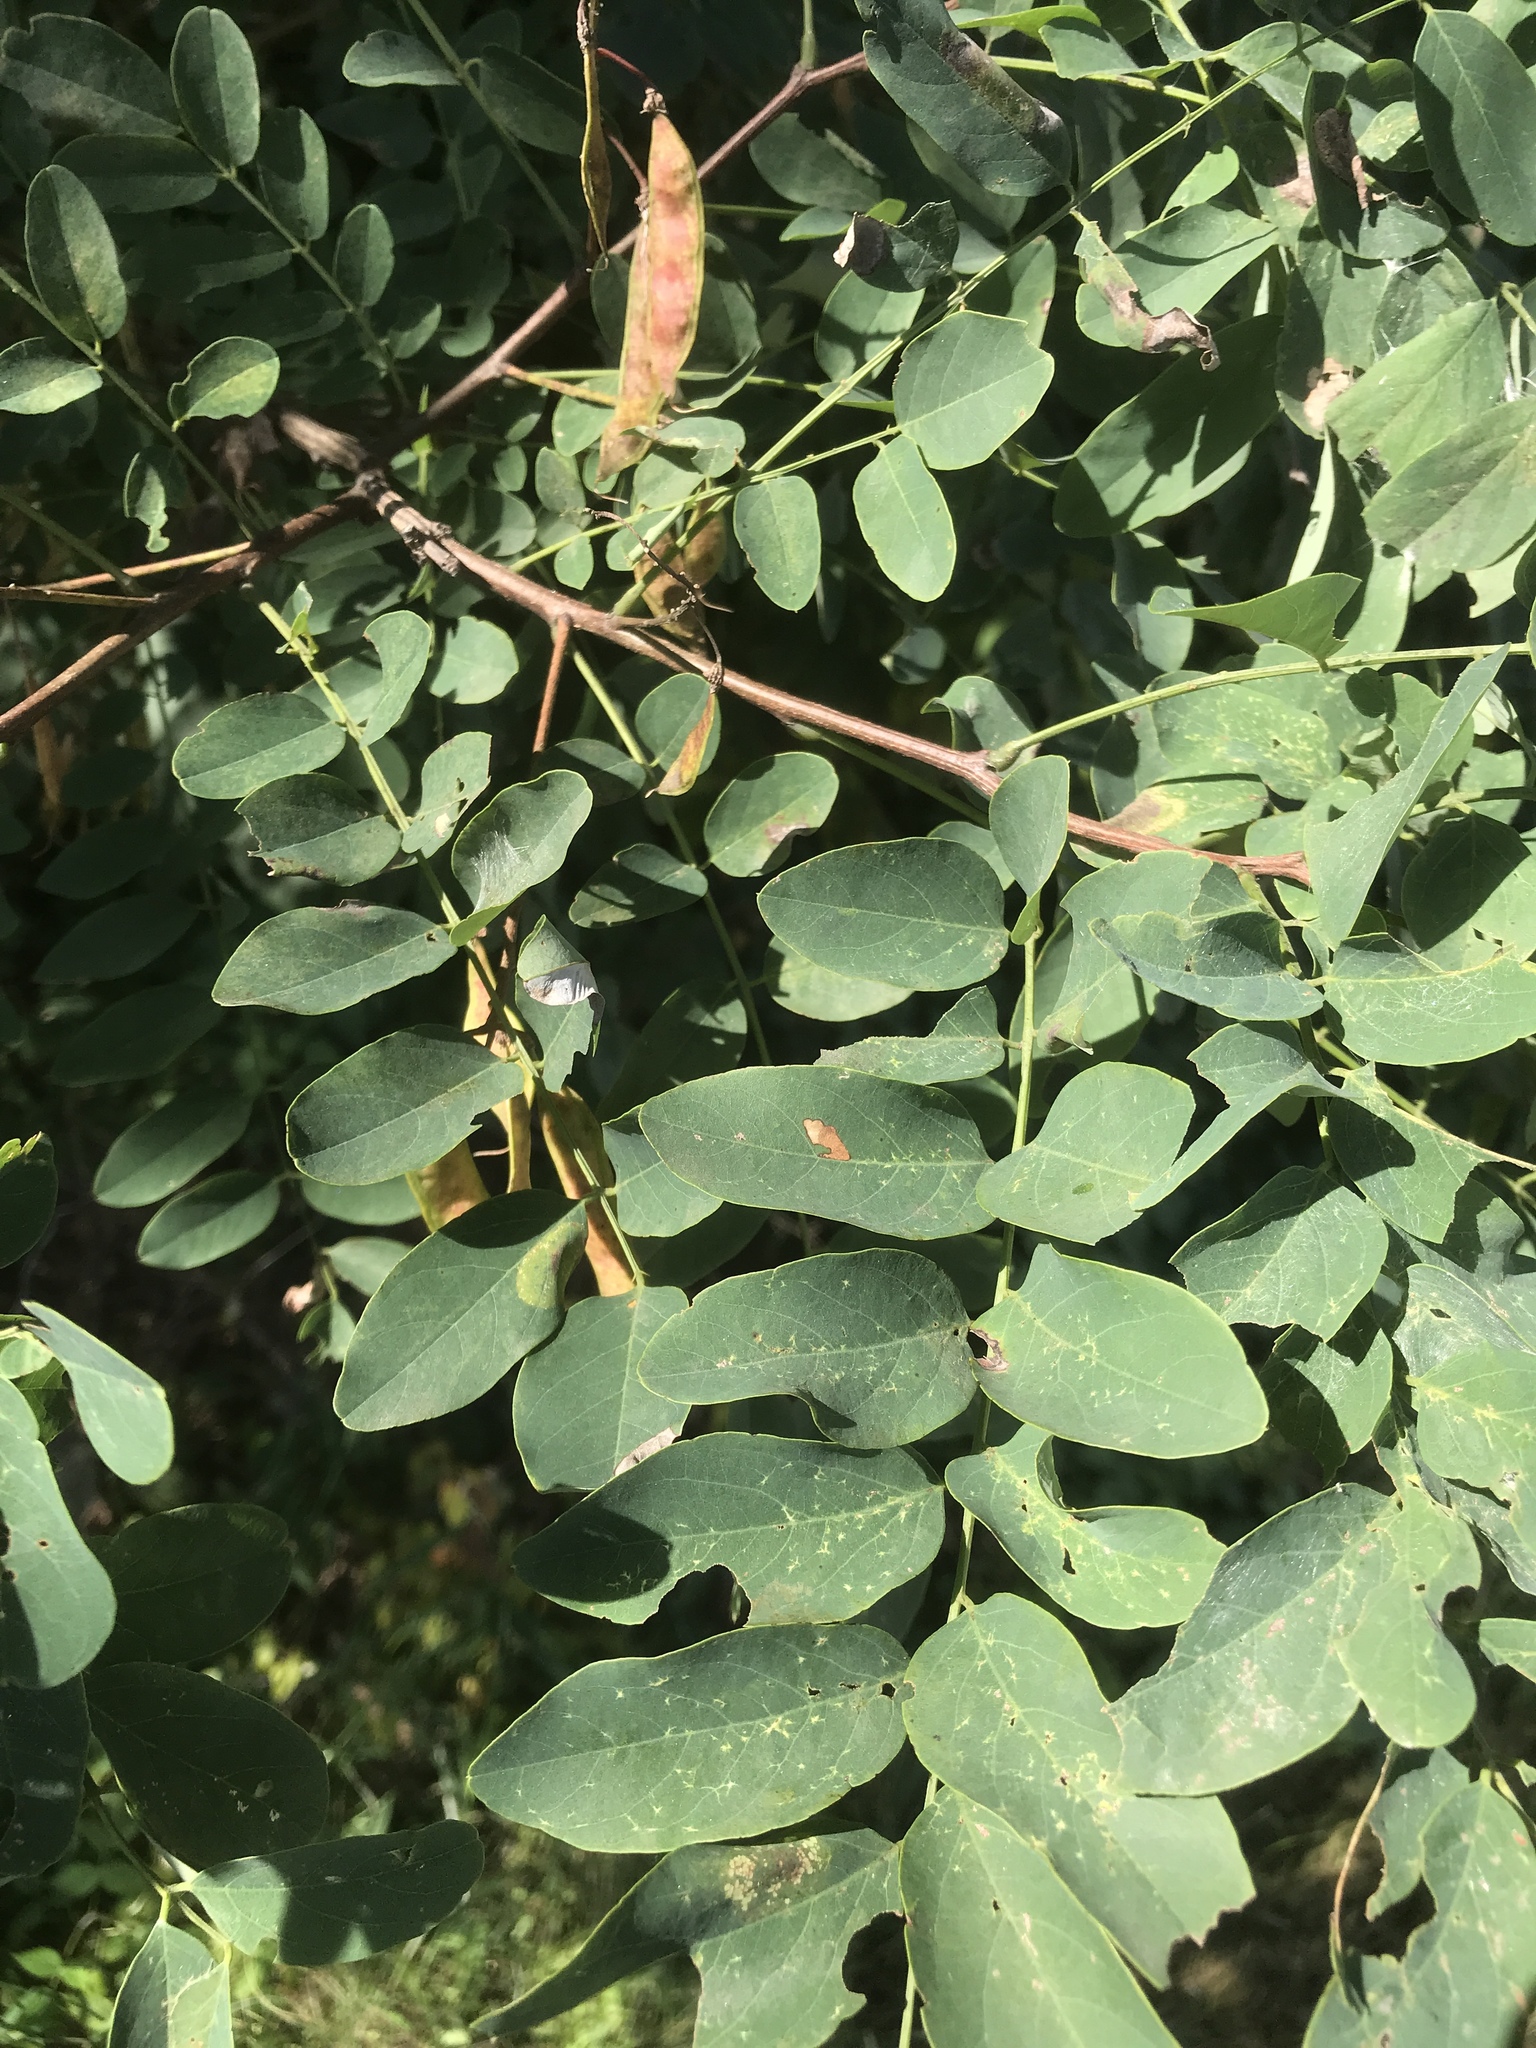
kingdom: Plantae
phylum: Tracheophyta
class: Magnoliopsida
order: Fabales
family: Fabaceae
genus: Robinia
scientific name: Robinia pseudoacacia
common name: Black locust
